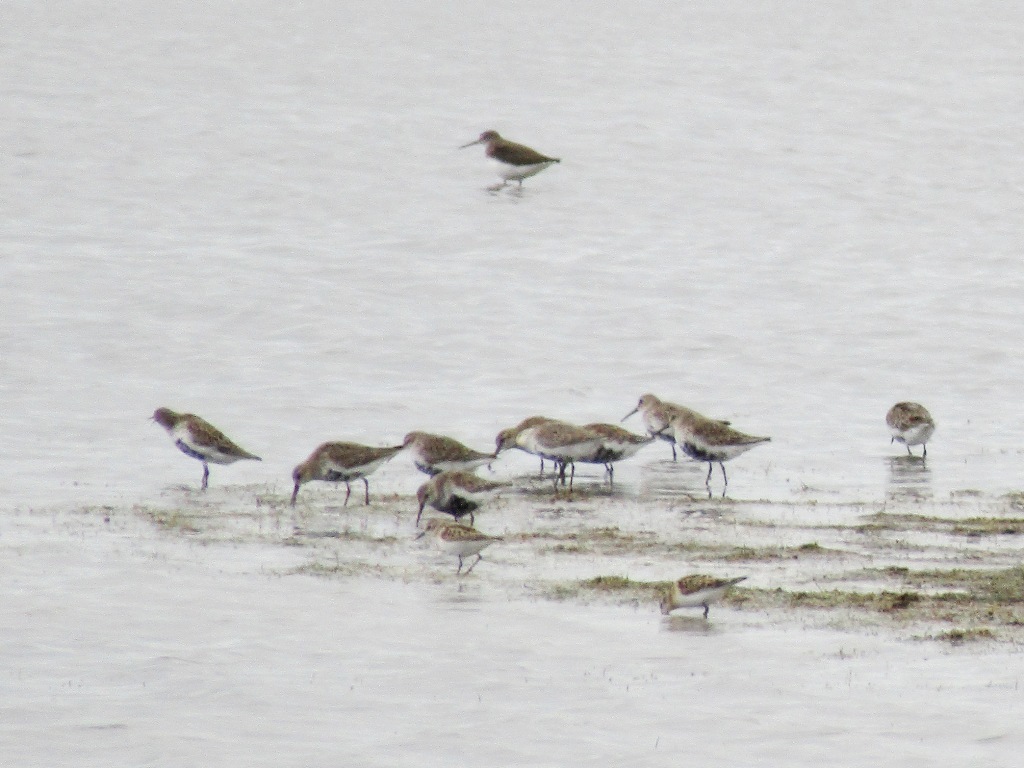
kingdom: Animalia
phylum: Chordata
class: Aves
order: Charadriiformes
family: Scolopacidae
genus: Calidris
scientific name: Calidris alpina
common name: Dunlin
